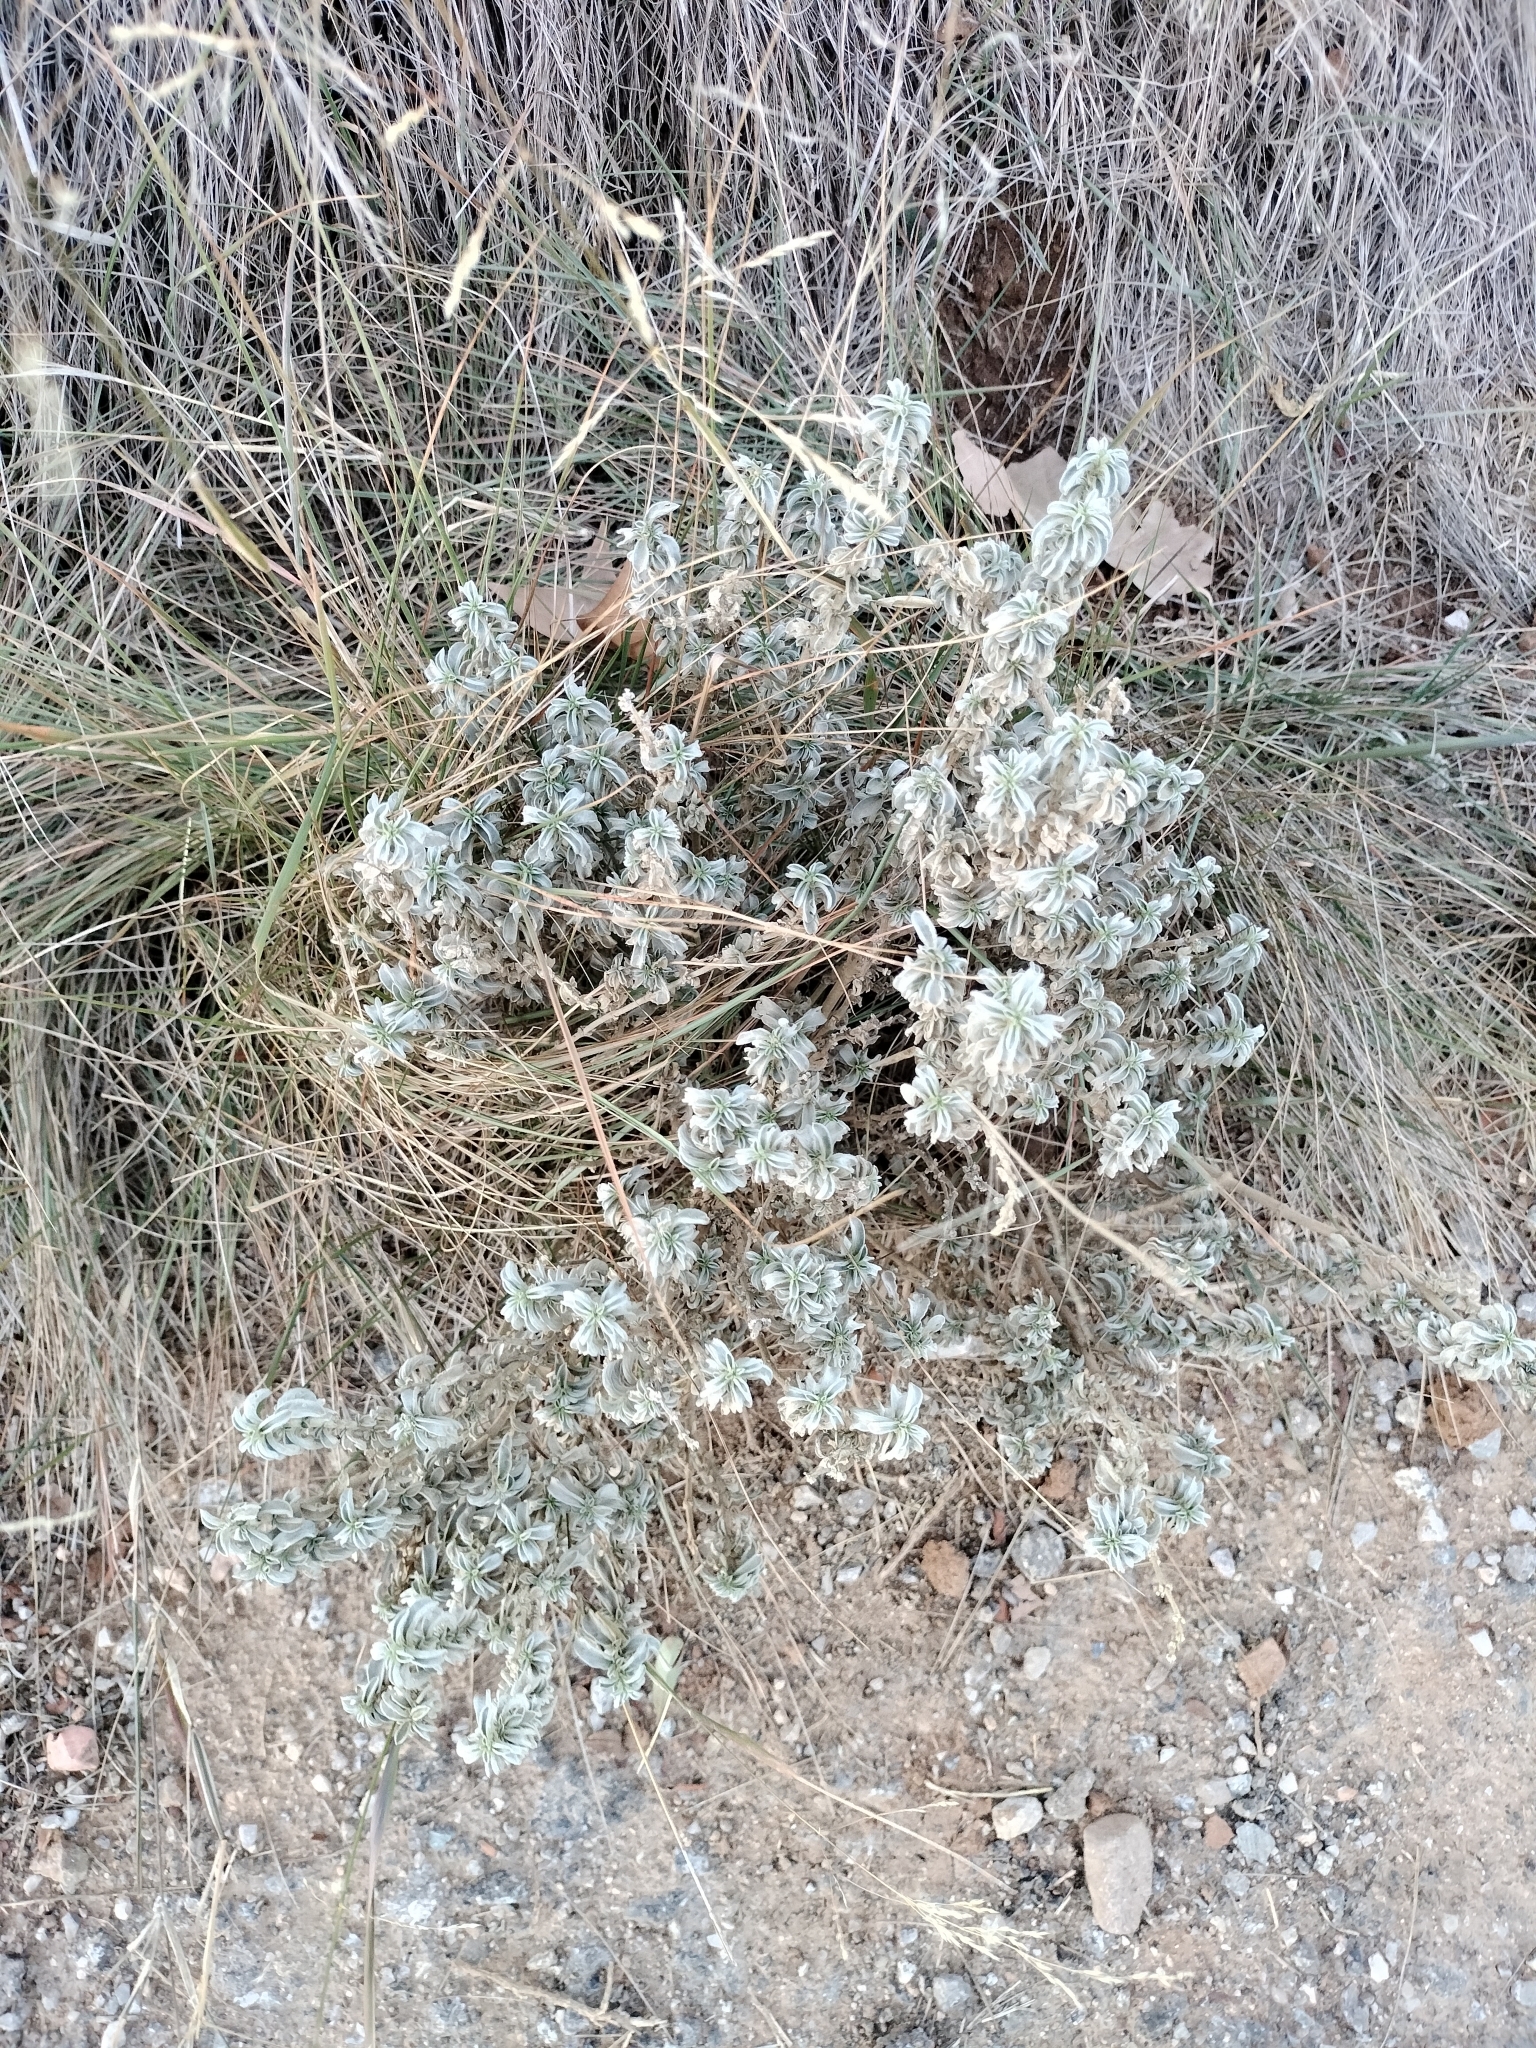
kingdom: Plantae
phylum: Tracheophyta
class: Magnoliopsida
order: Malpighiales
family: Euphorbiaceae
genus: Mercurialis
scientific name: Mercurialis tomentosa
